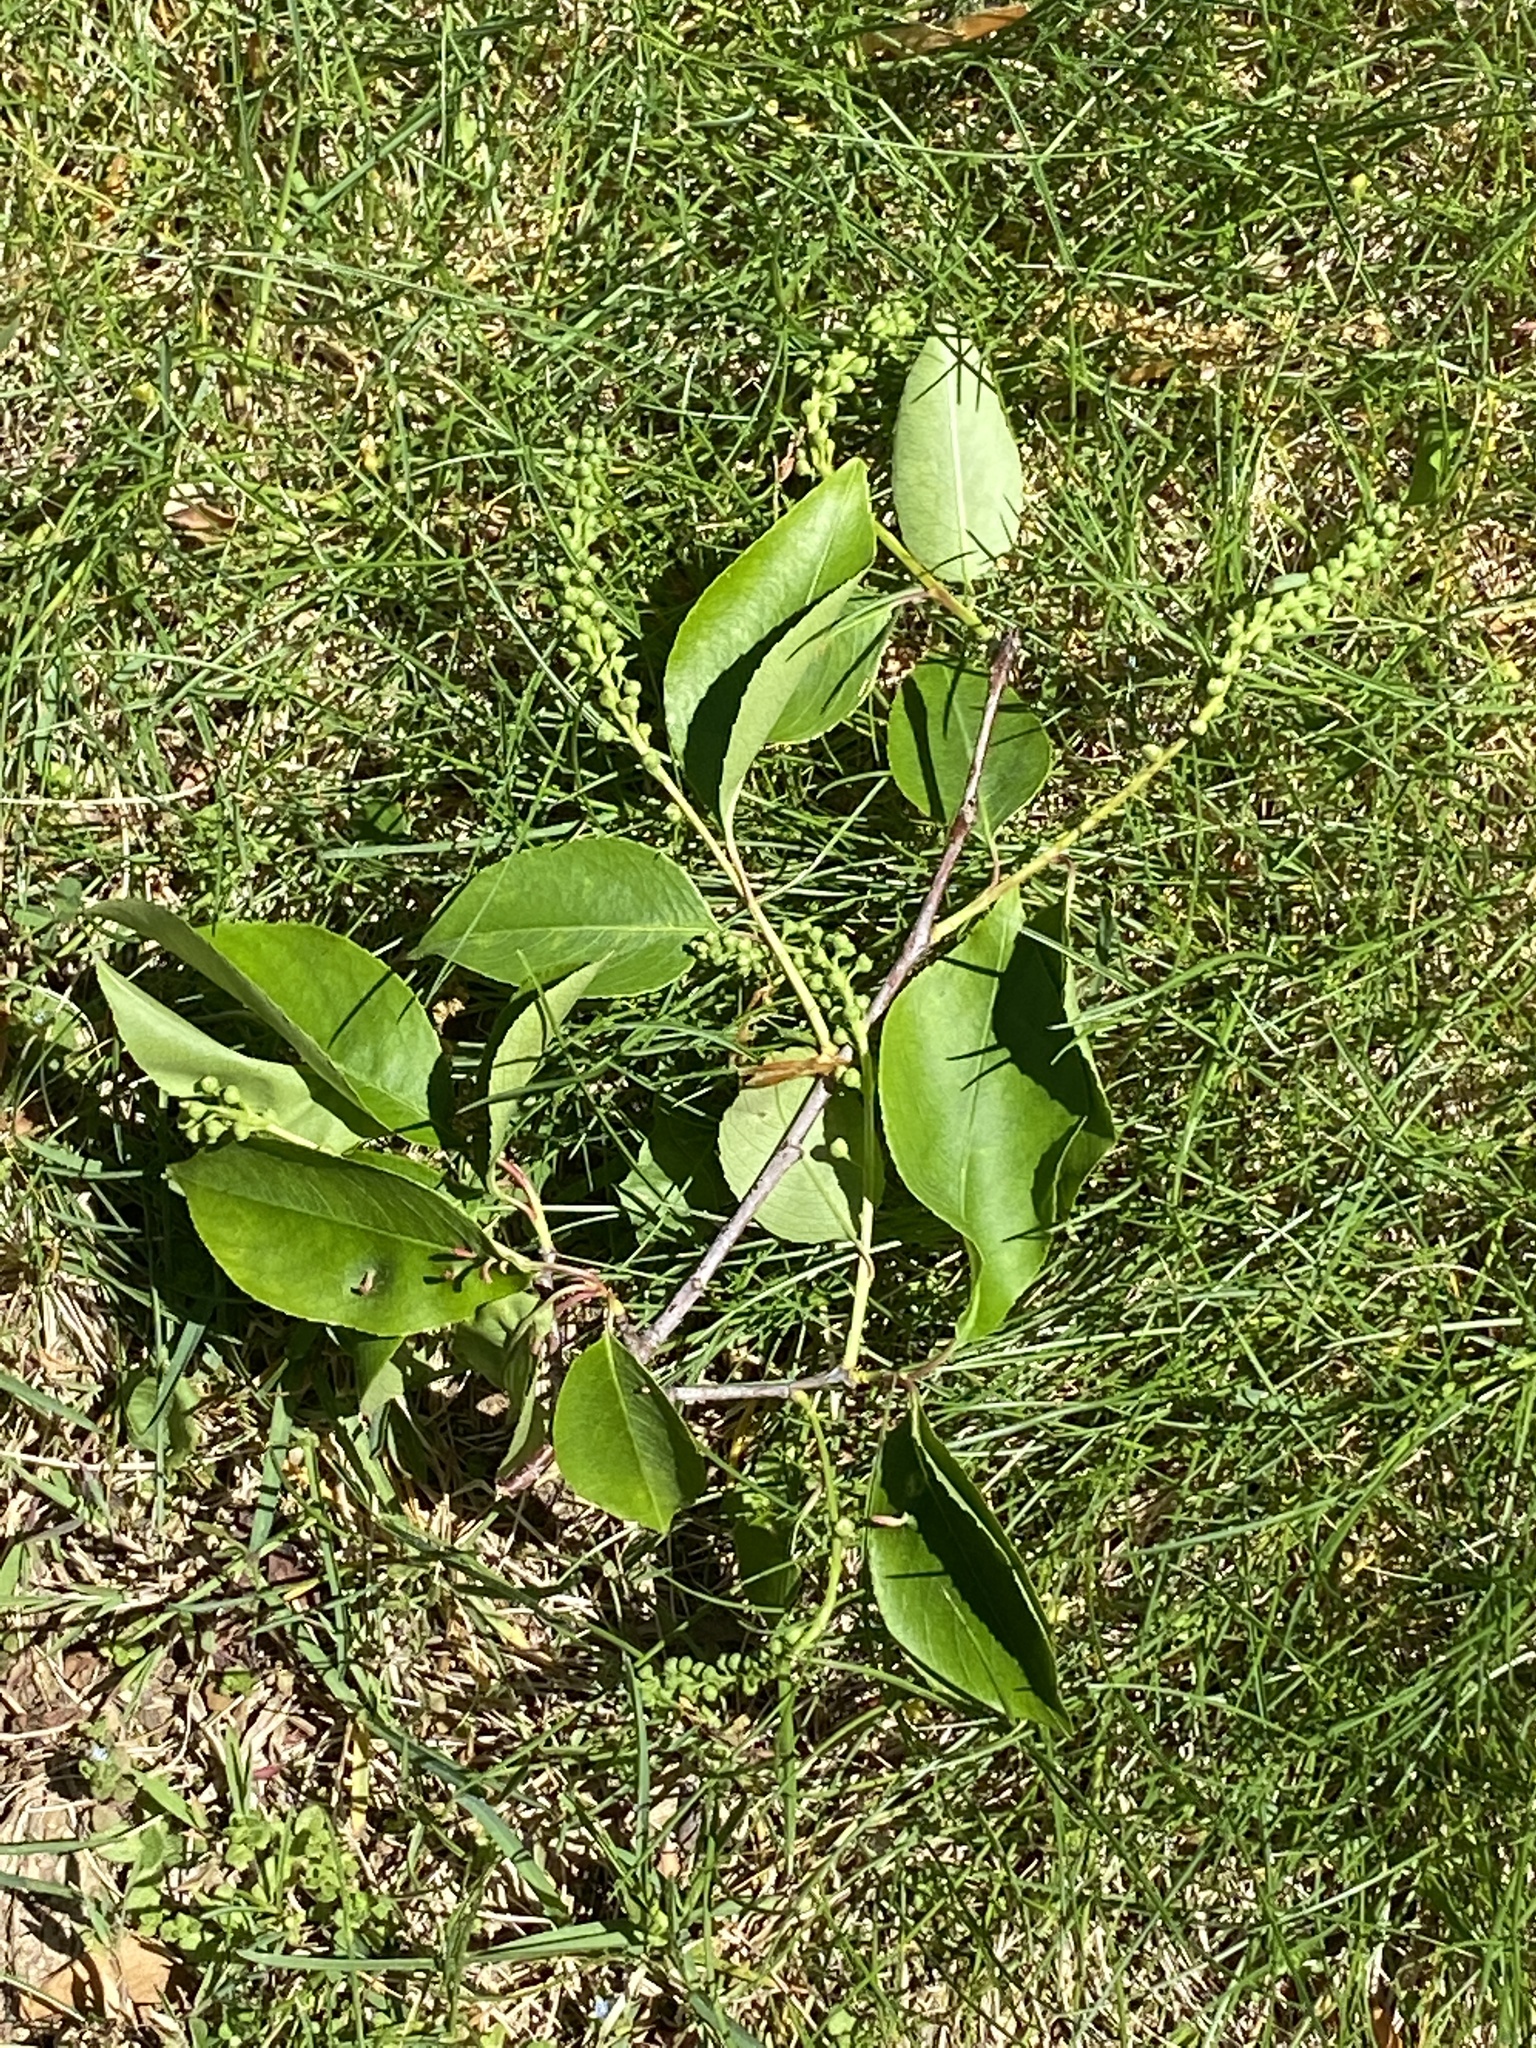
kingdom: Plantae
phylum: Tracheophyta
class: Magnoliopsida
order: Rosales
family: Rosaceae
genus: Prunus
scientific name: Prunus serotina
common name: Black cherry
